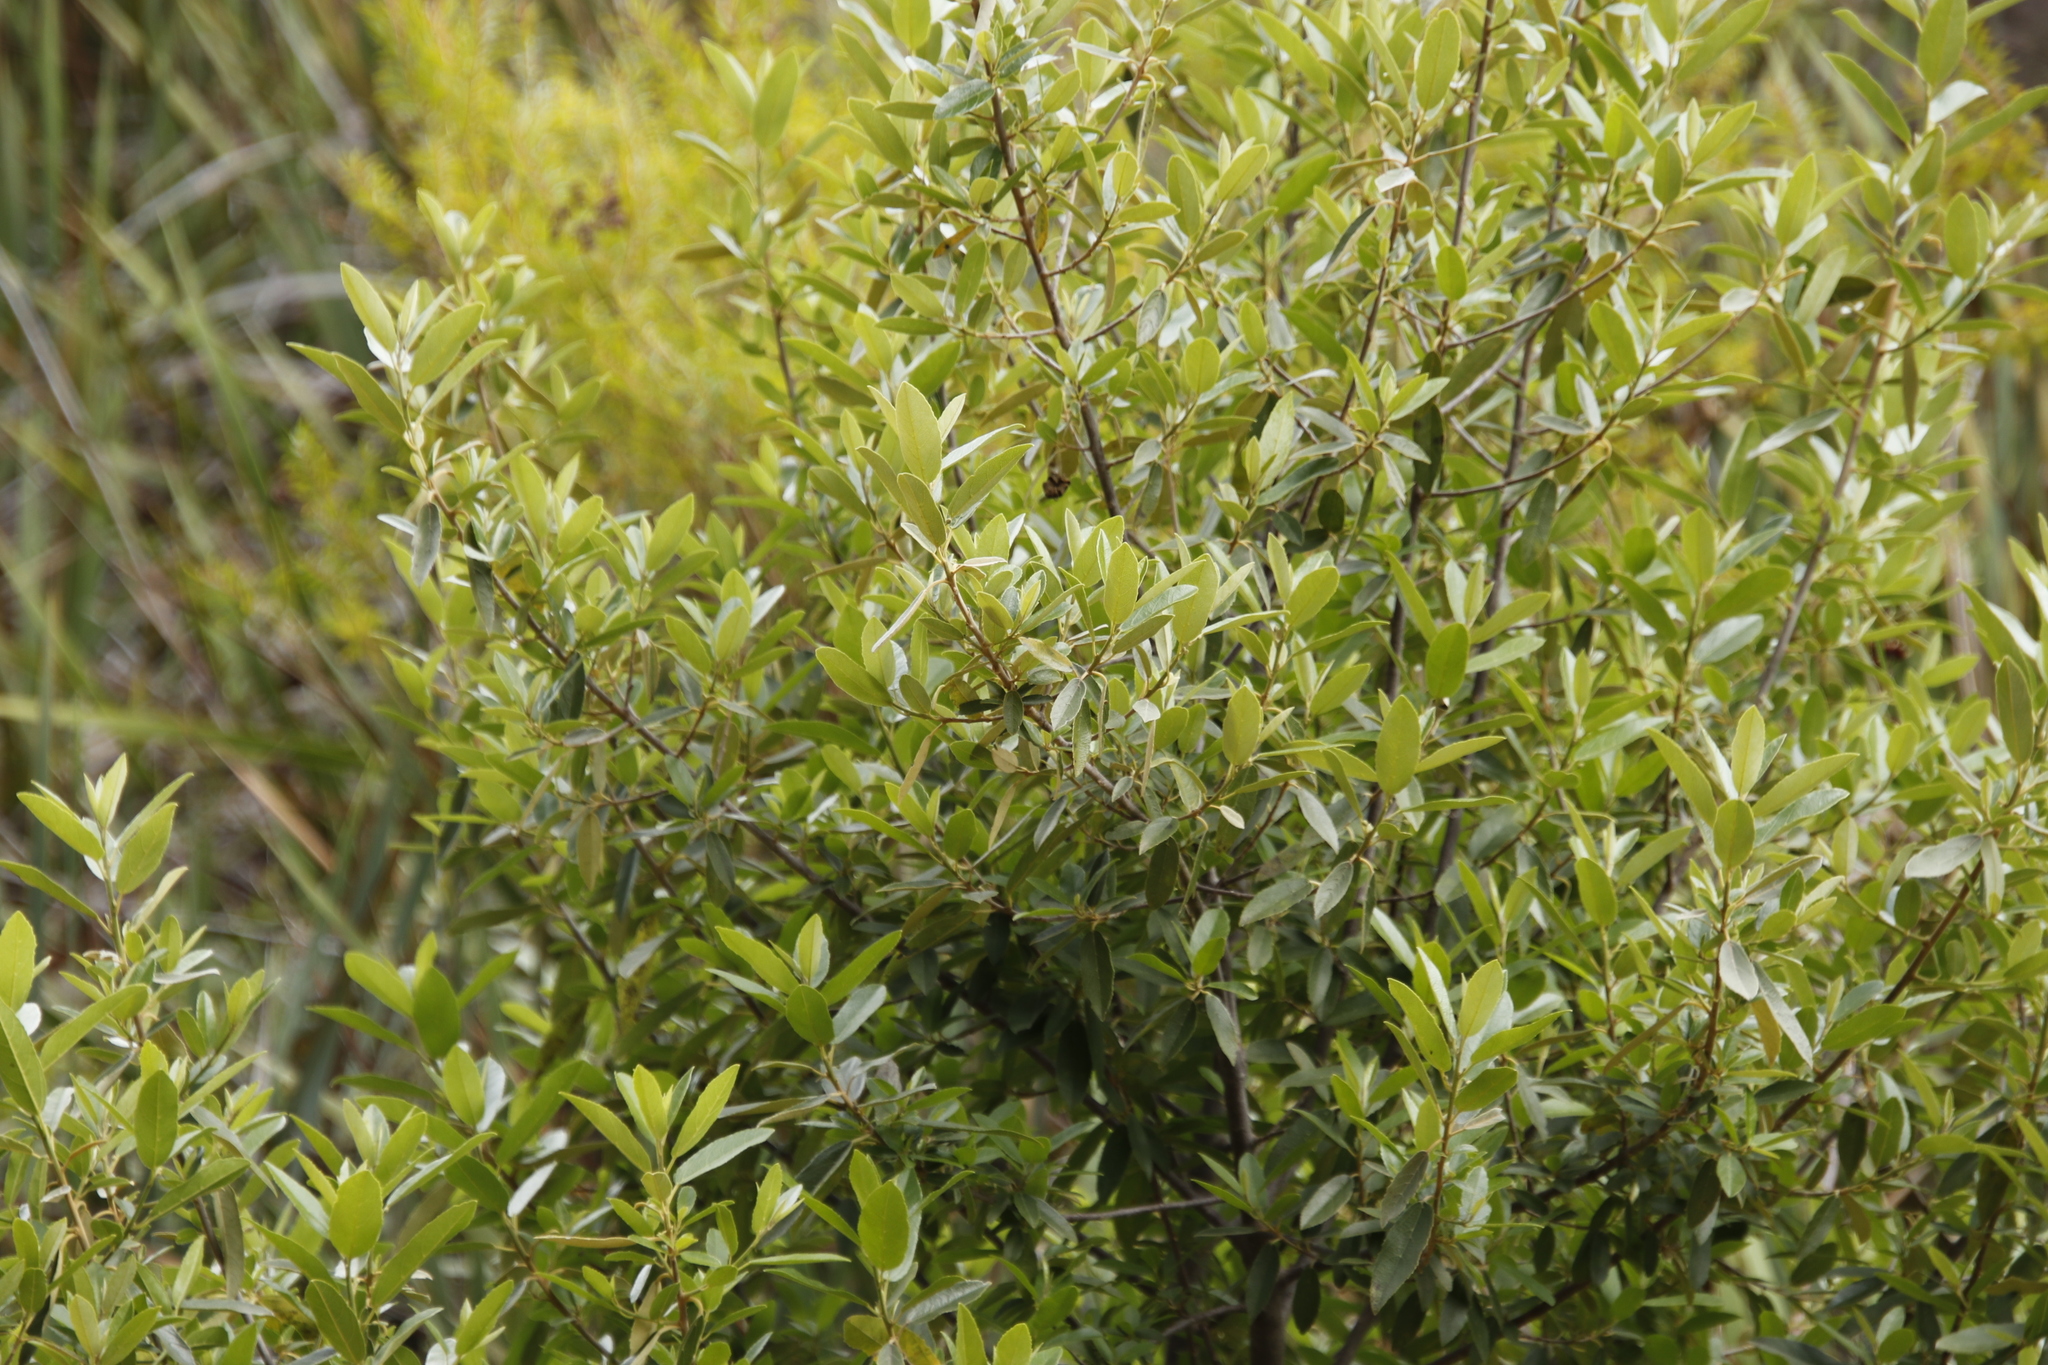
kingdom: Plantae
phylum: Tracheophyta
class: Magnoliopsida
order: Malpighiales
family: Achariaceae
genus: Kiggelaria
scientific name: Kiggelaria africana
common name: Wild peach
